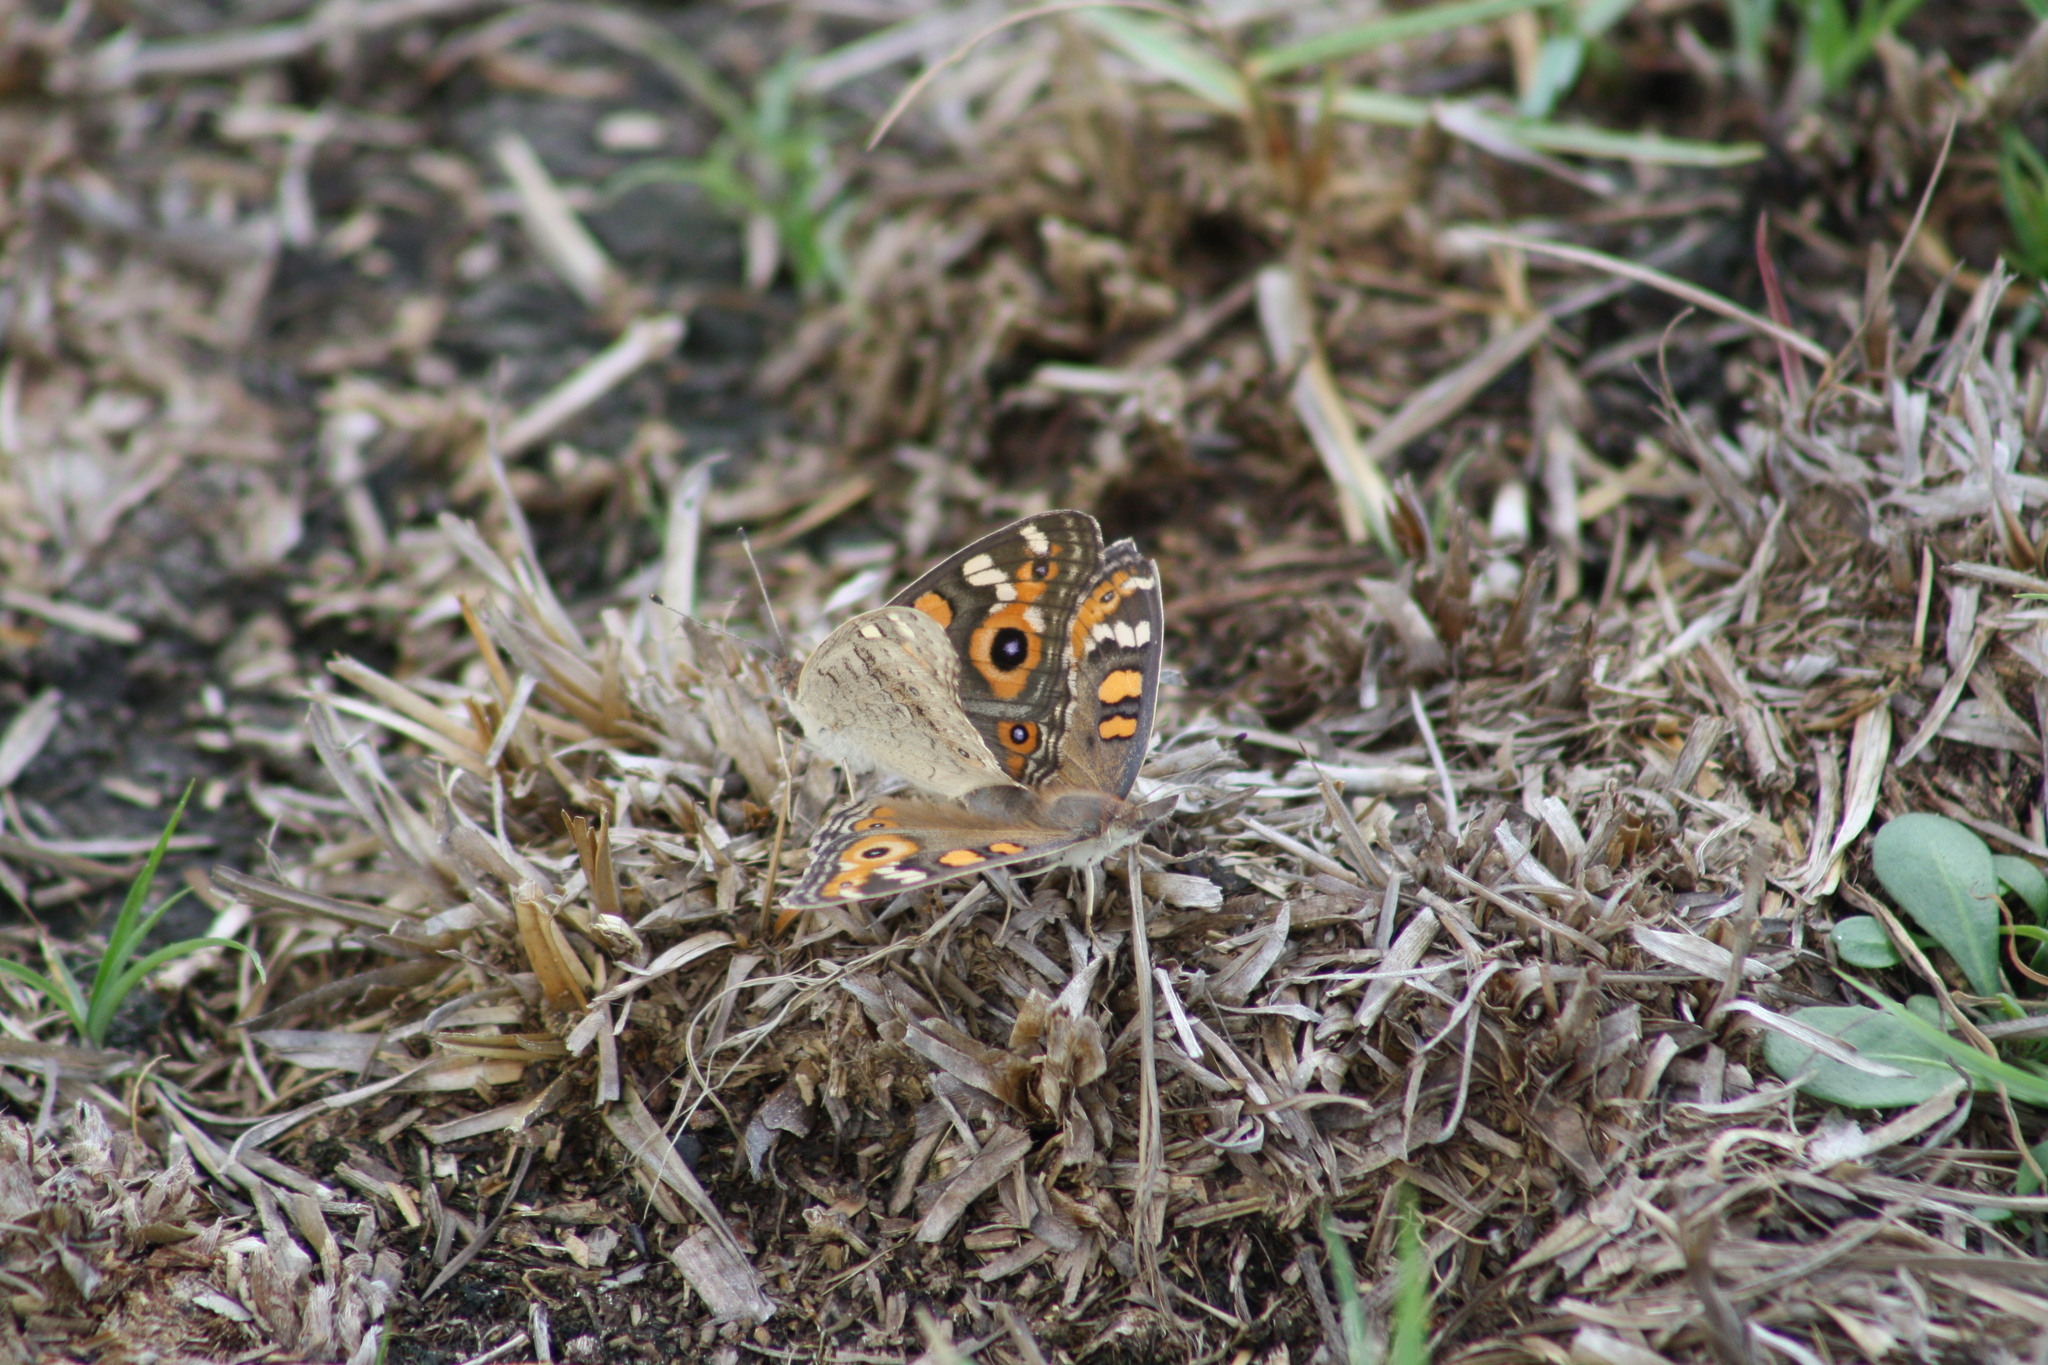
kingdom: Animalia
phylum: Arthropoda
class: Insecta
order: Lepidoptera
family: Nymphalidae
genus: Junonia
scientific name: Junonia villida
